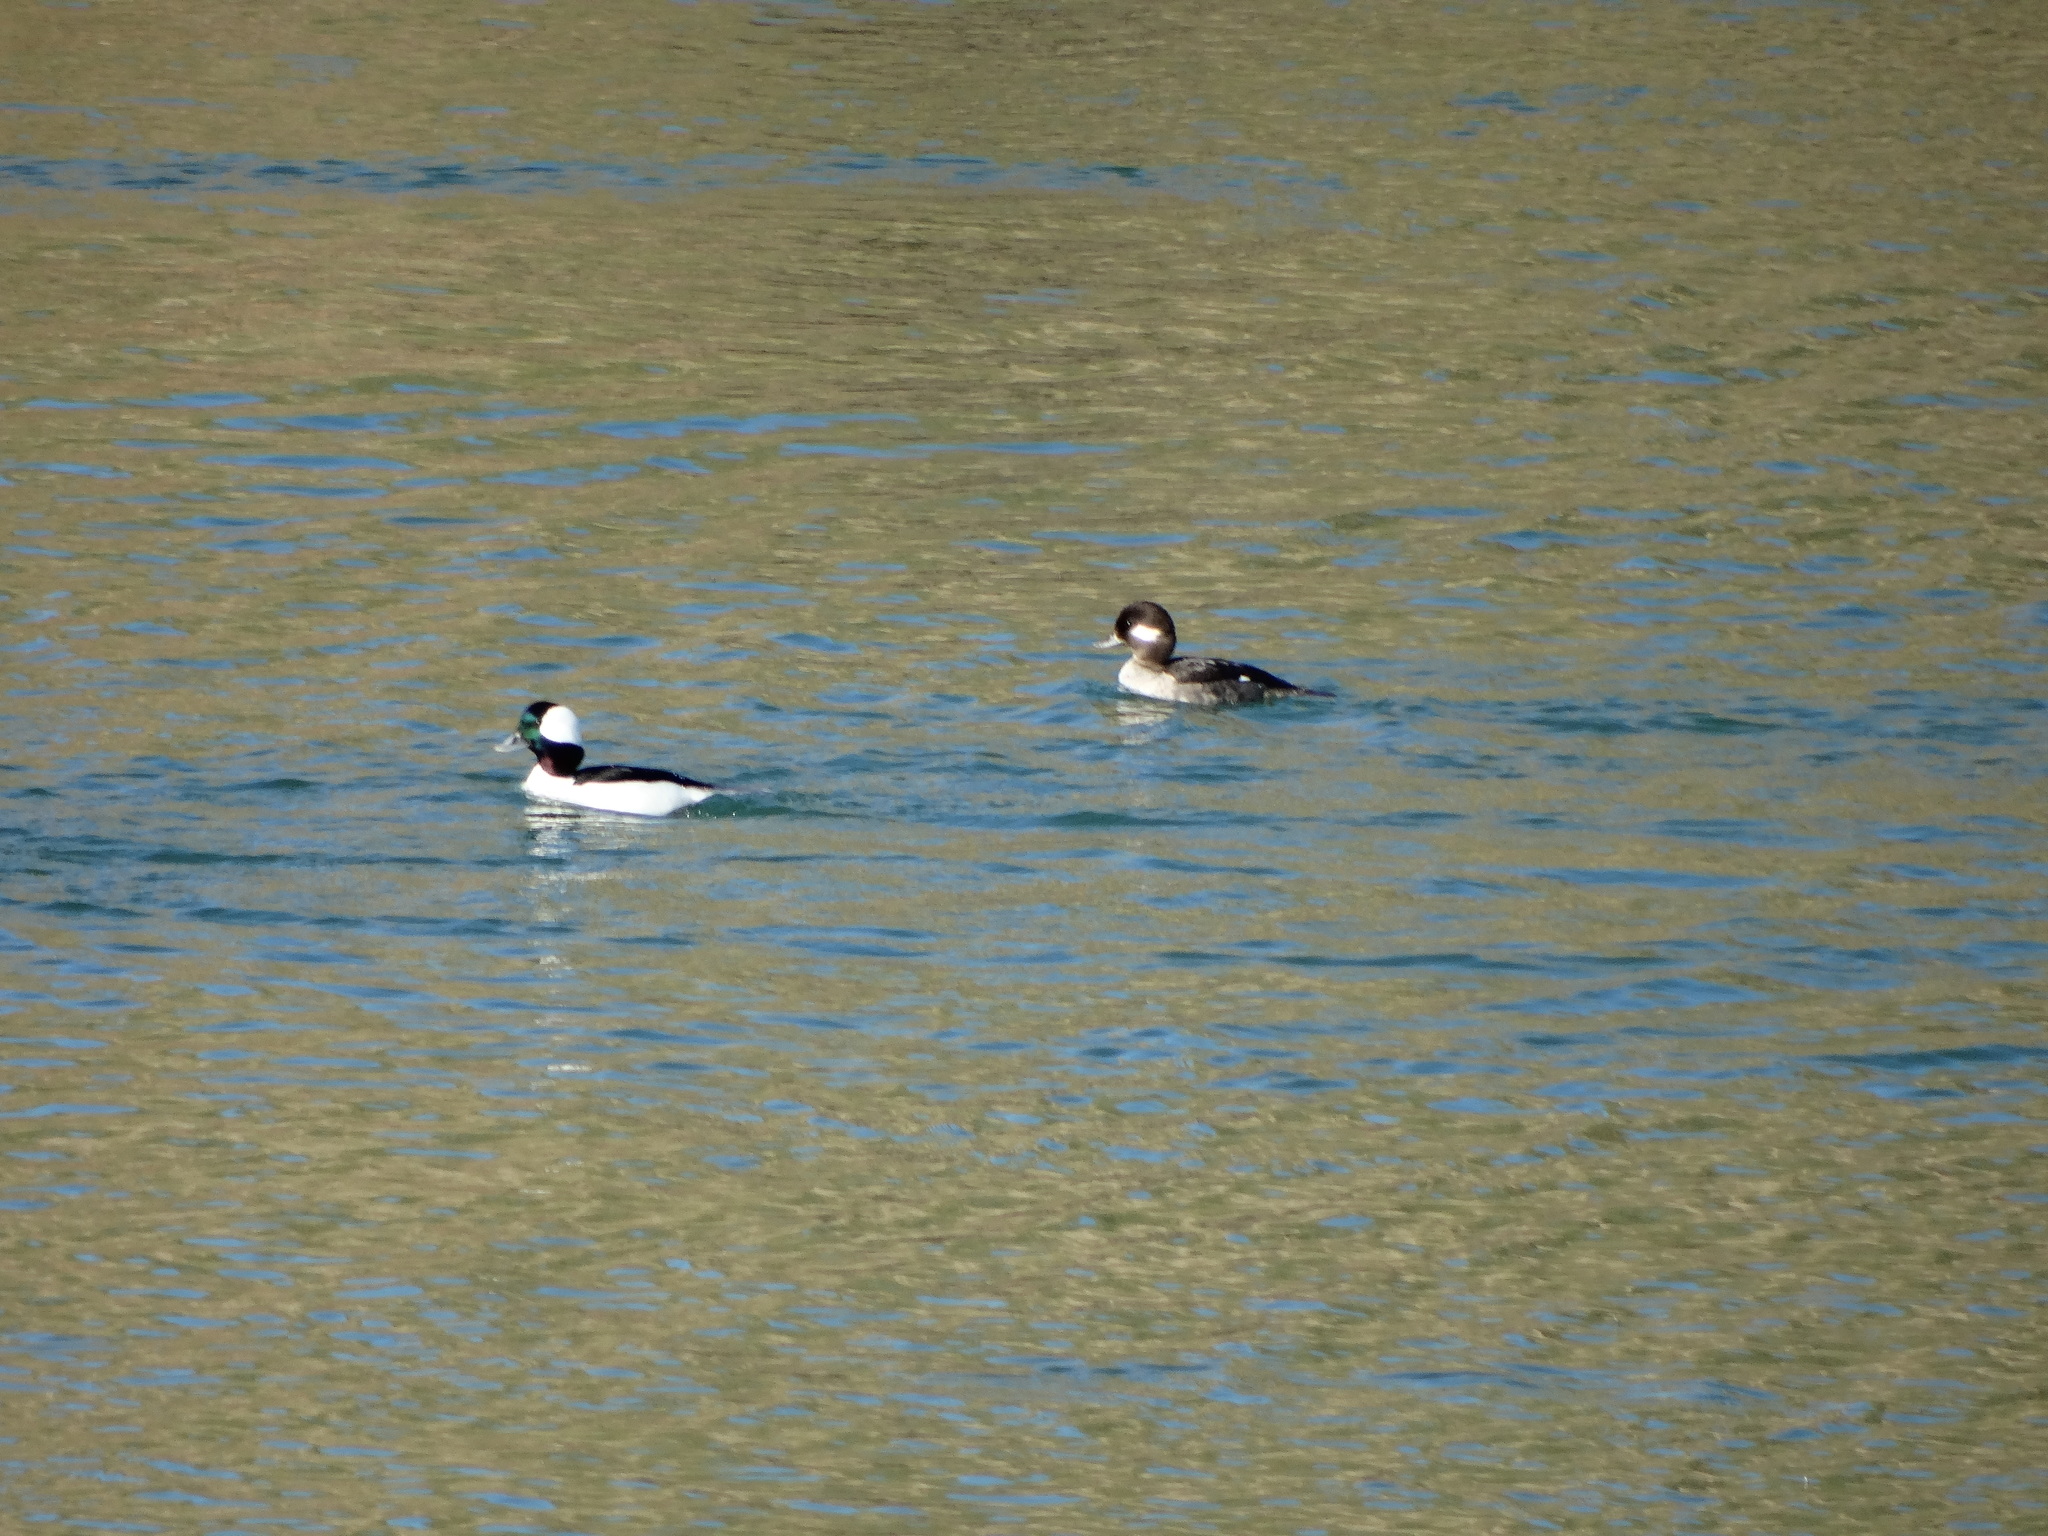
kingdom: Animalia
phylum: Chordata
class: Aves
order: Anseriformes
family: Anatidae
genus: Bucephala
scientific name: Bucephala albeola
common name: Bufflehead
